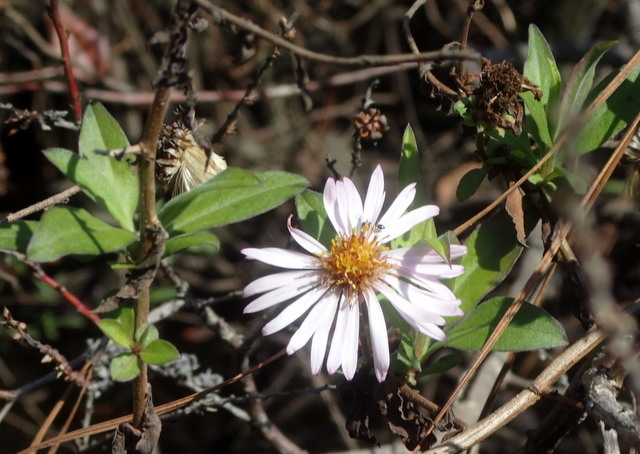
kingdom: Plantae
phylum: Tracheophyta
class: Magnoliopsida
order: Asterales
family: Asteraceae
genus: Ampelaster
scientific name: Ampelaster carolinianus
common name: Climbing aster
